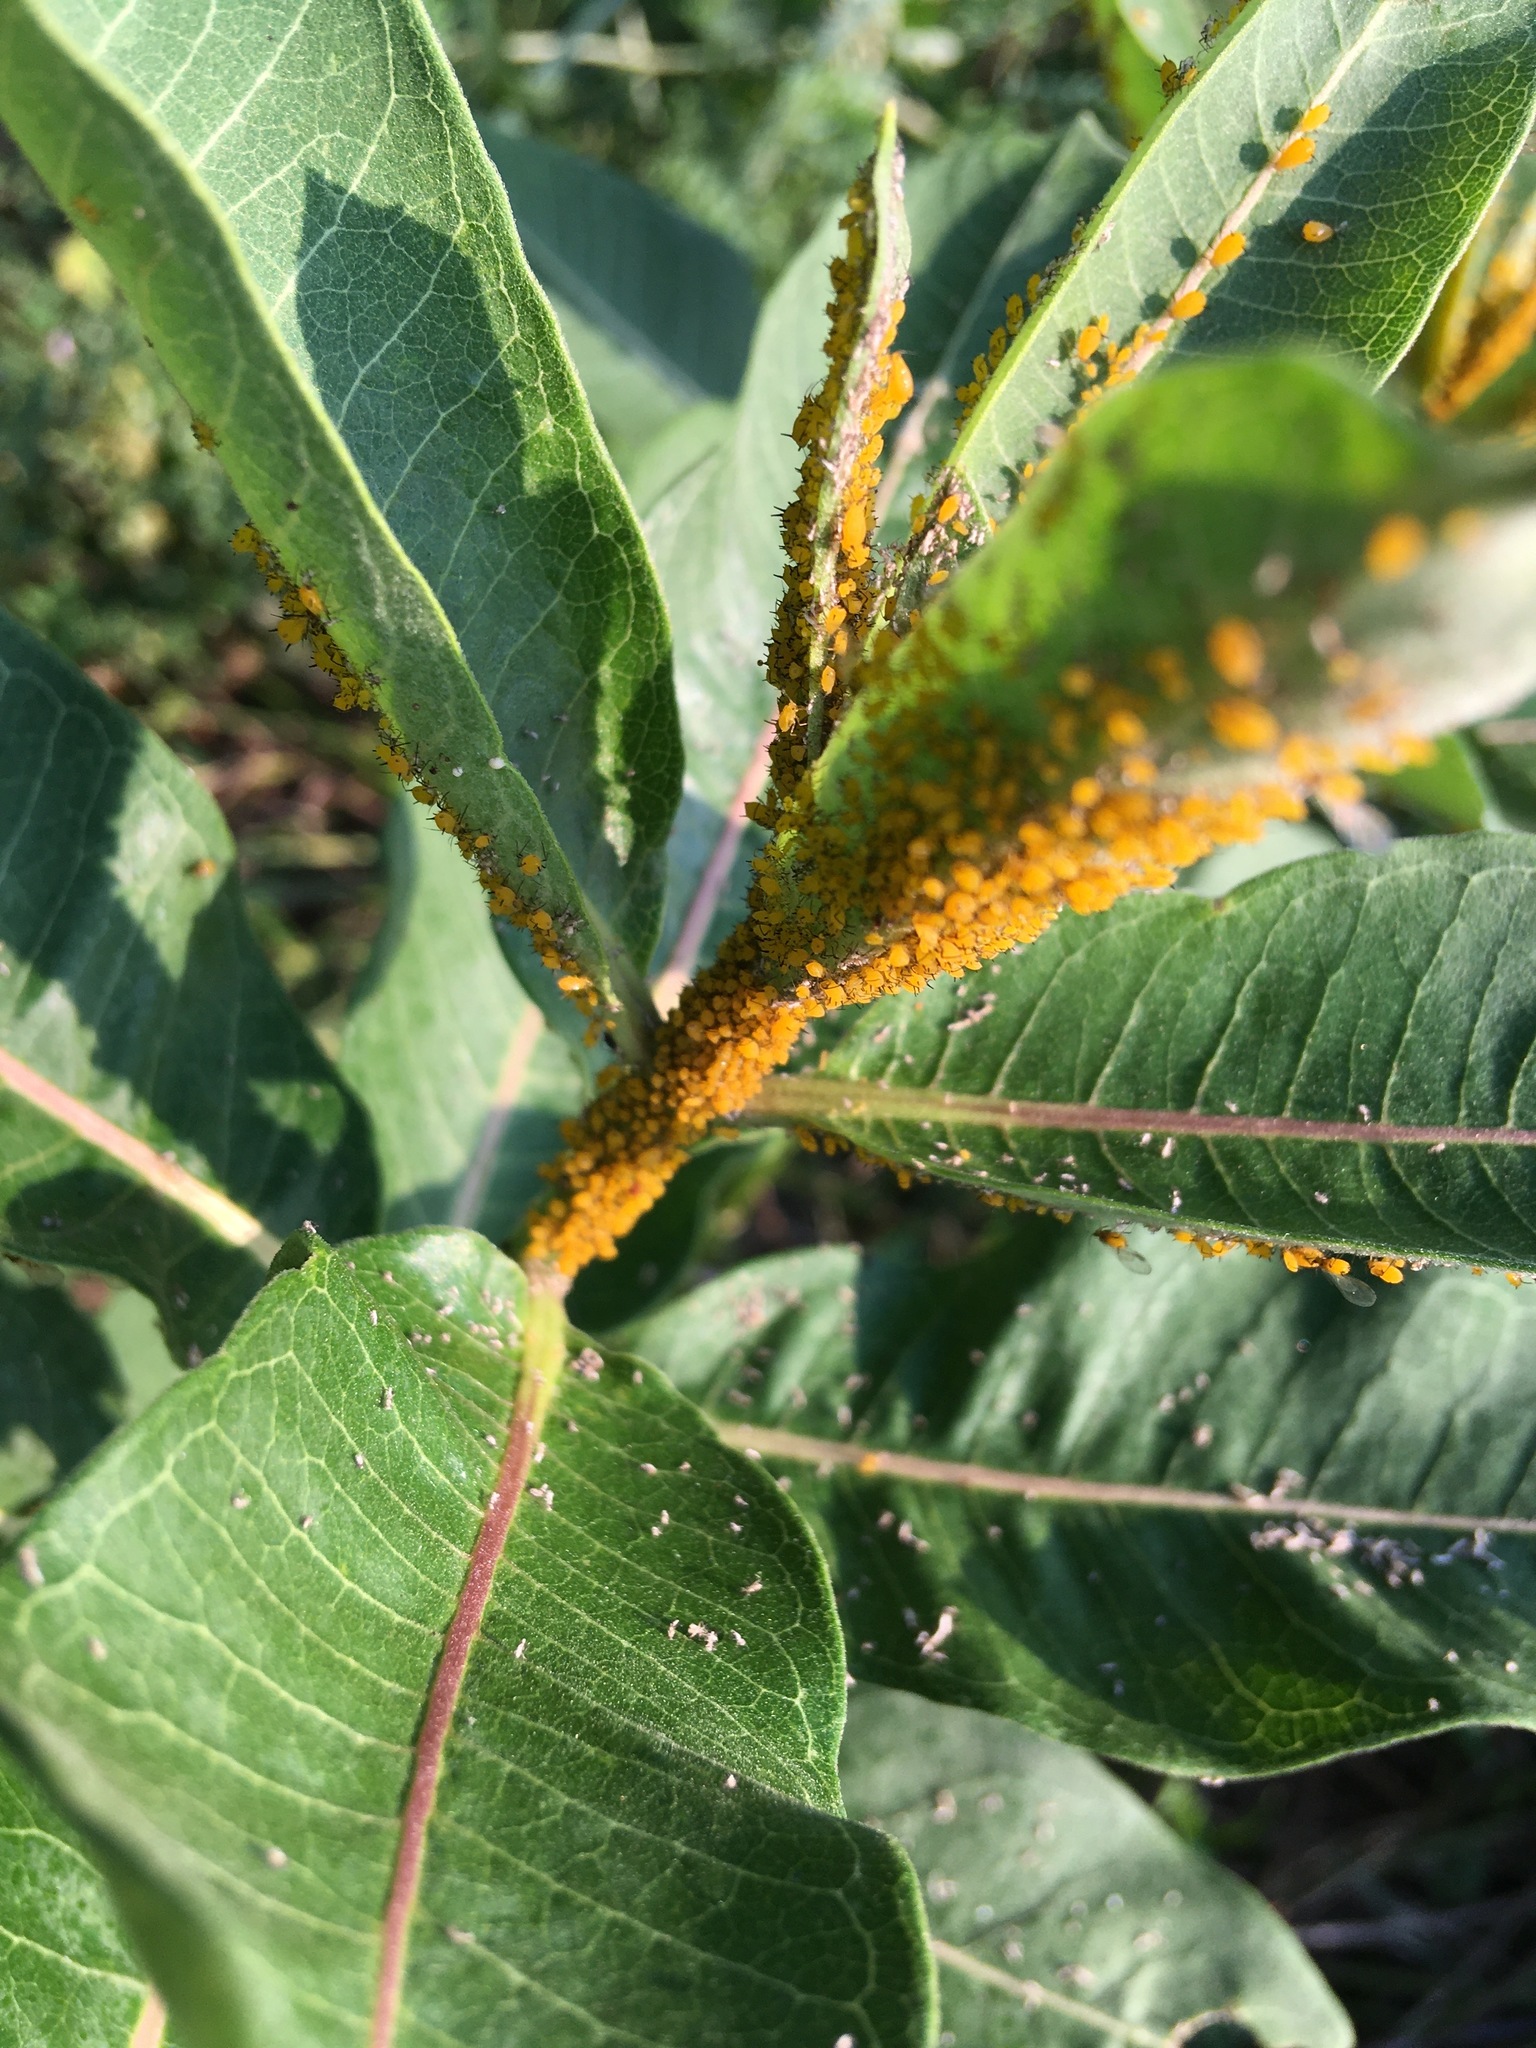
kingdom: Animalia
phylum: Arthropoda
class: Insecta
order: Hemiptera
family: Aphididae
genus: Aphis
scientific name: Aphis nerii
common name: Oleander aphid
